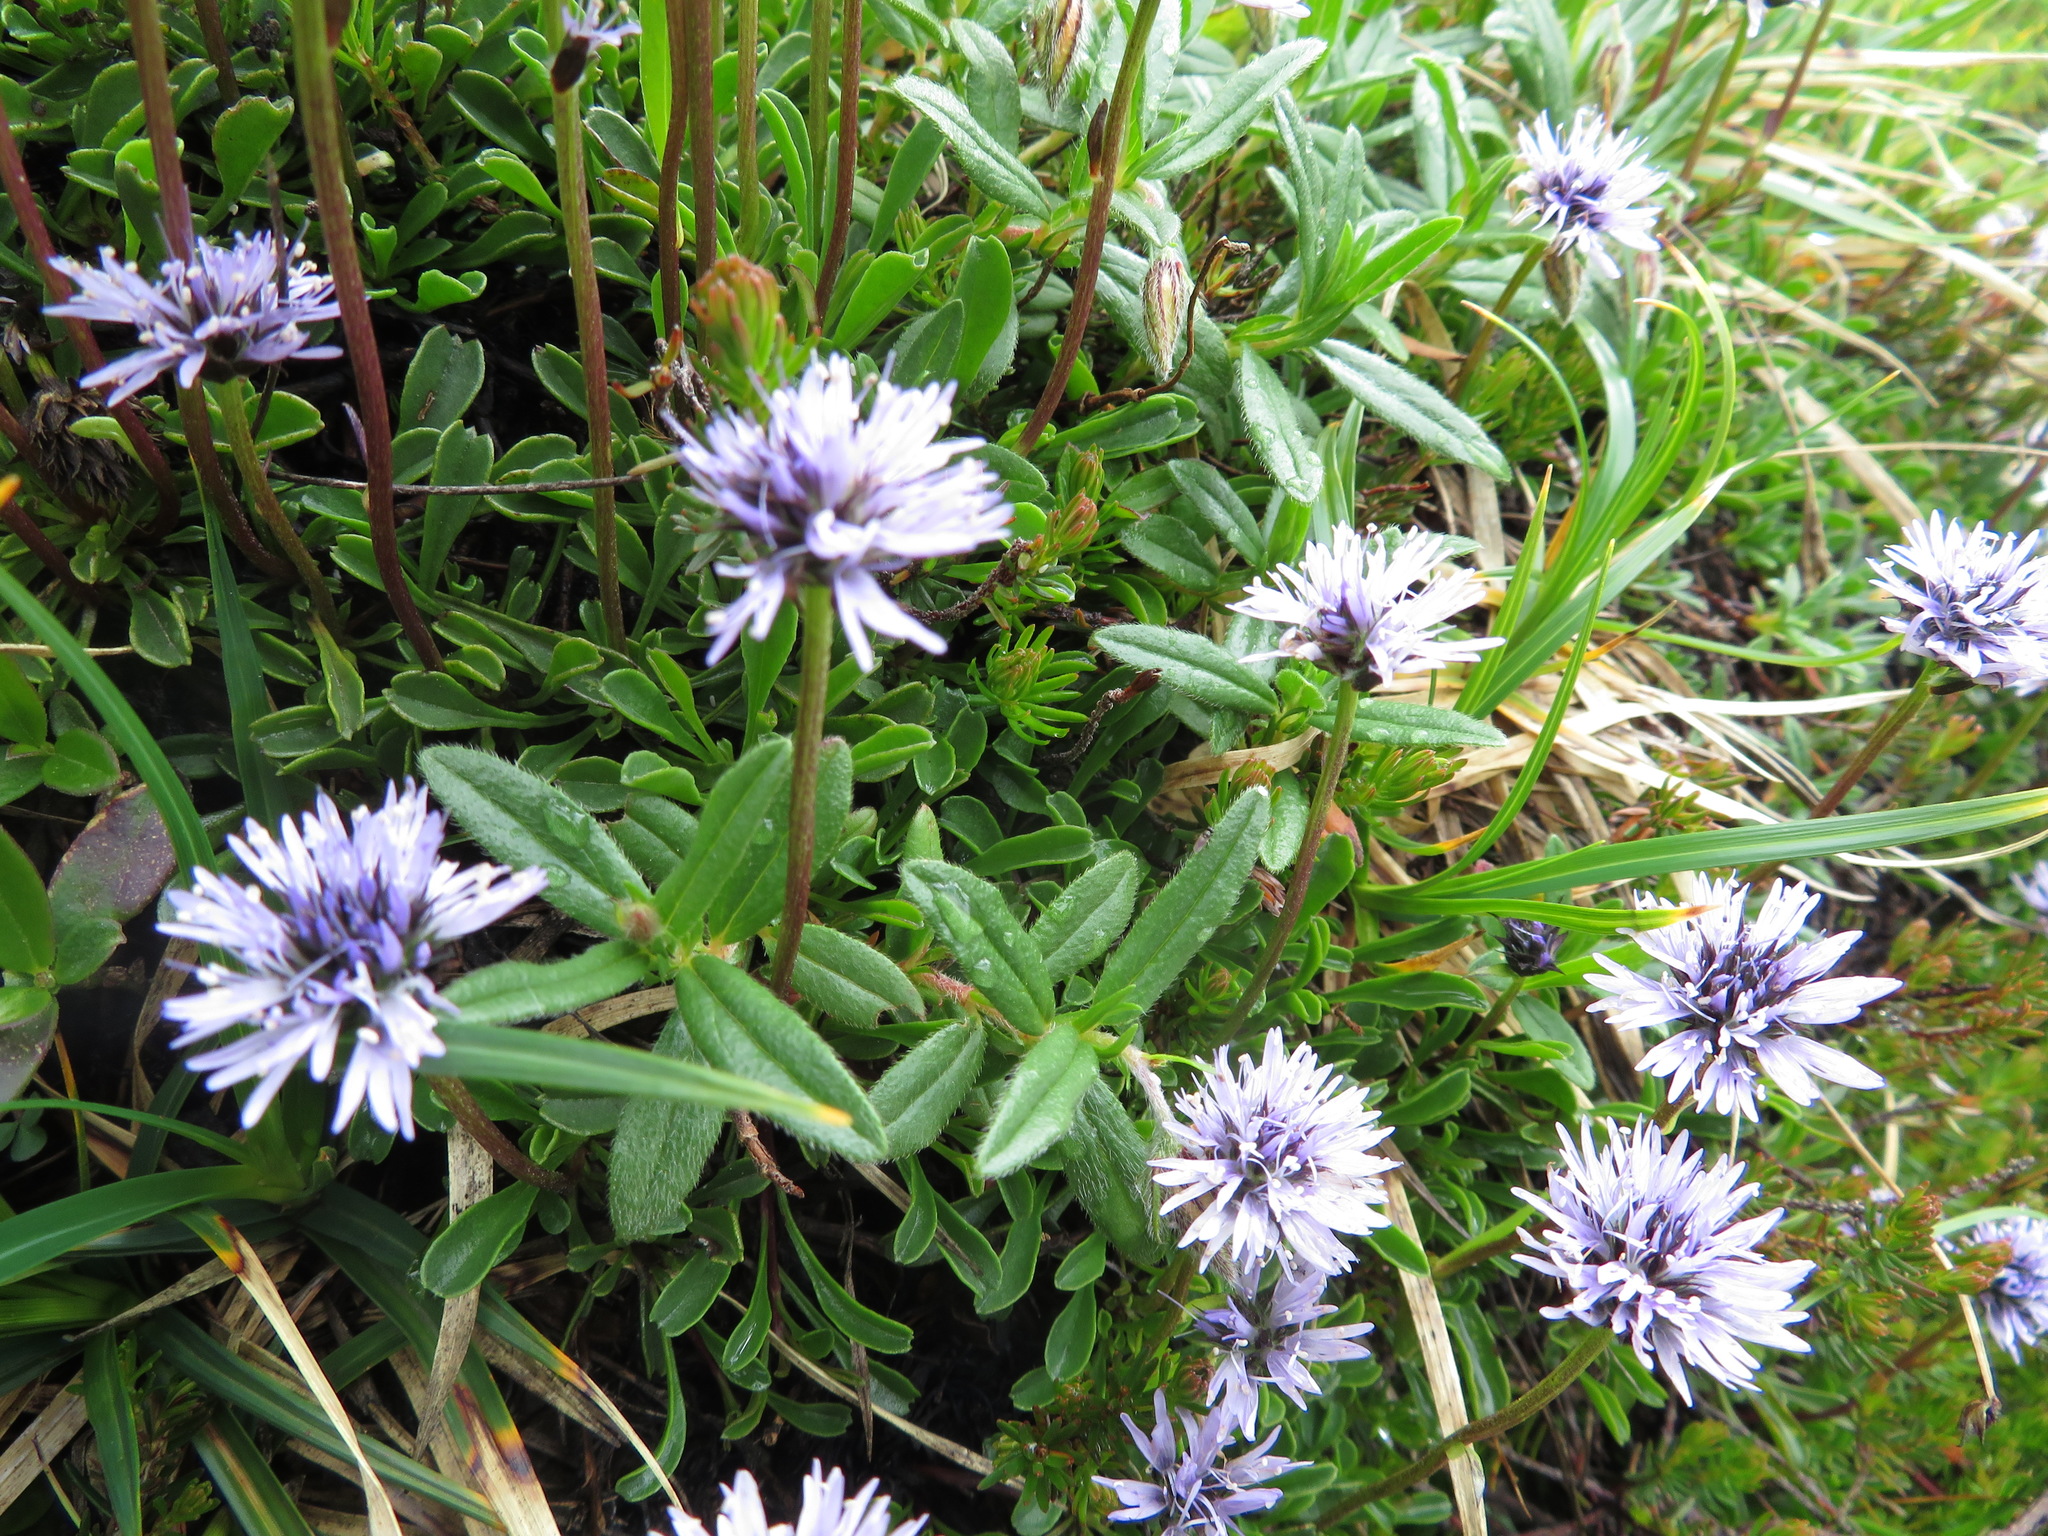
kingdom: Plantae
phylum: Tracheophyta
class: Magnoliopsida
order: Lamiales
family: Plantaginaceae
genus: Globularia
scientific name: Globularia cordifolia
